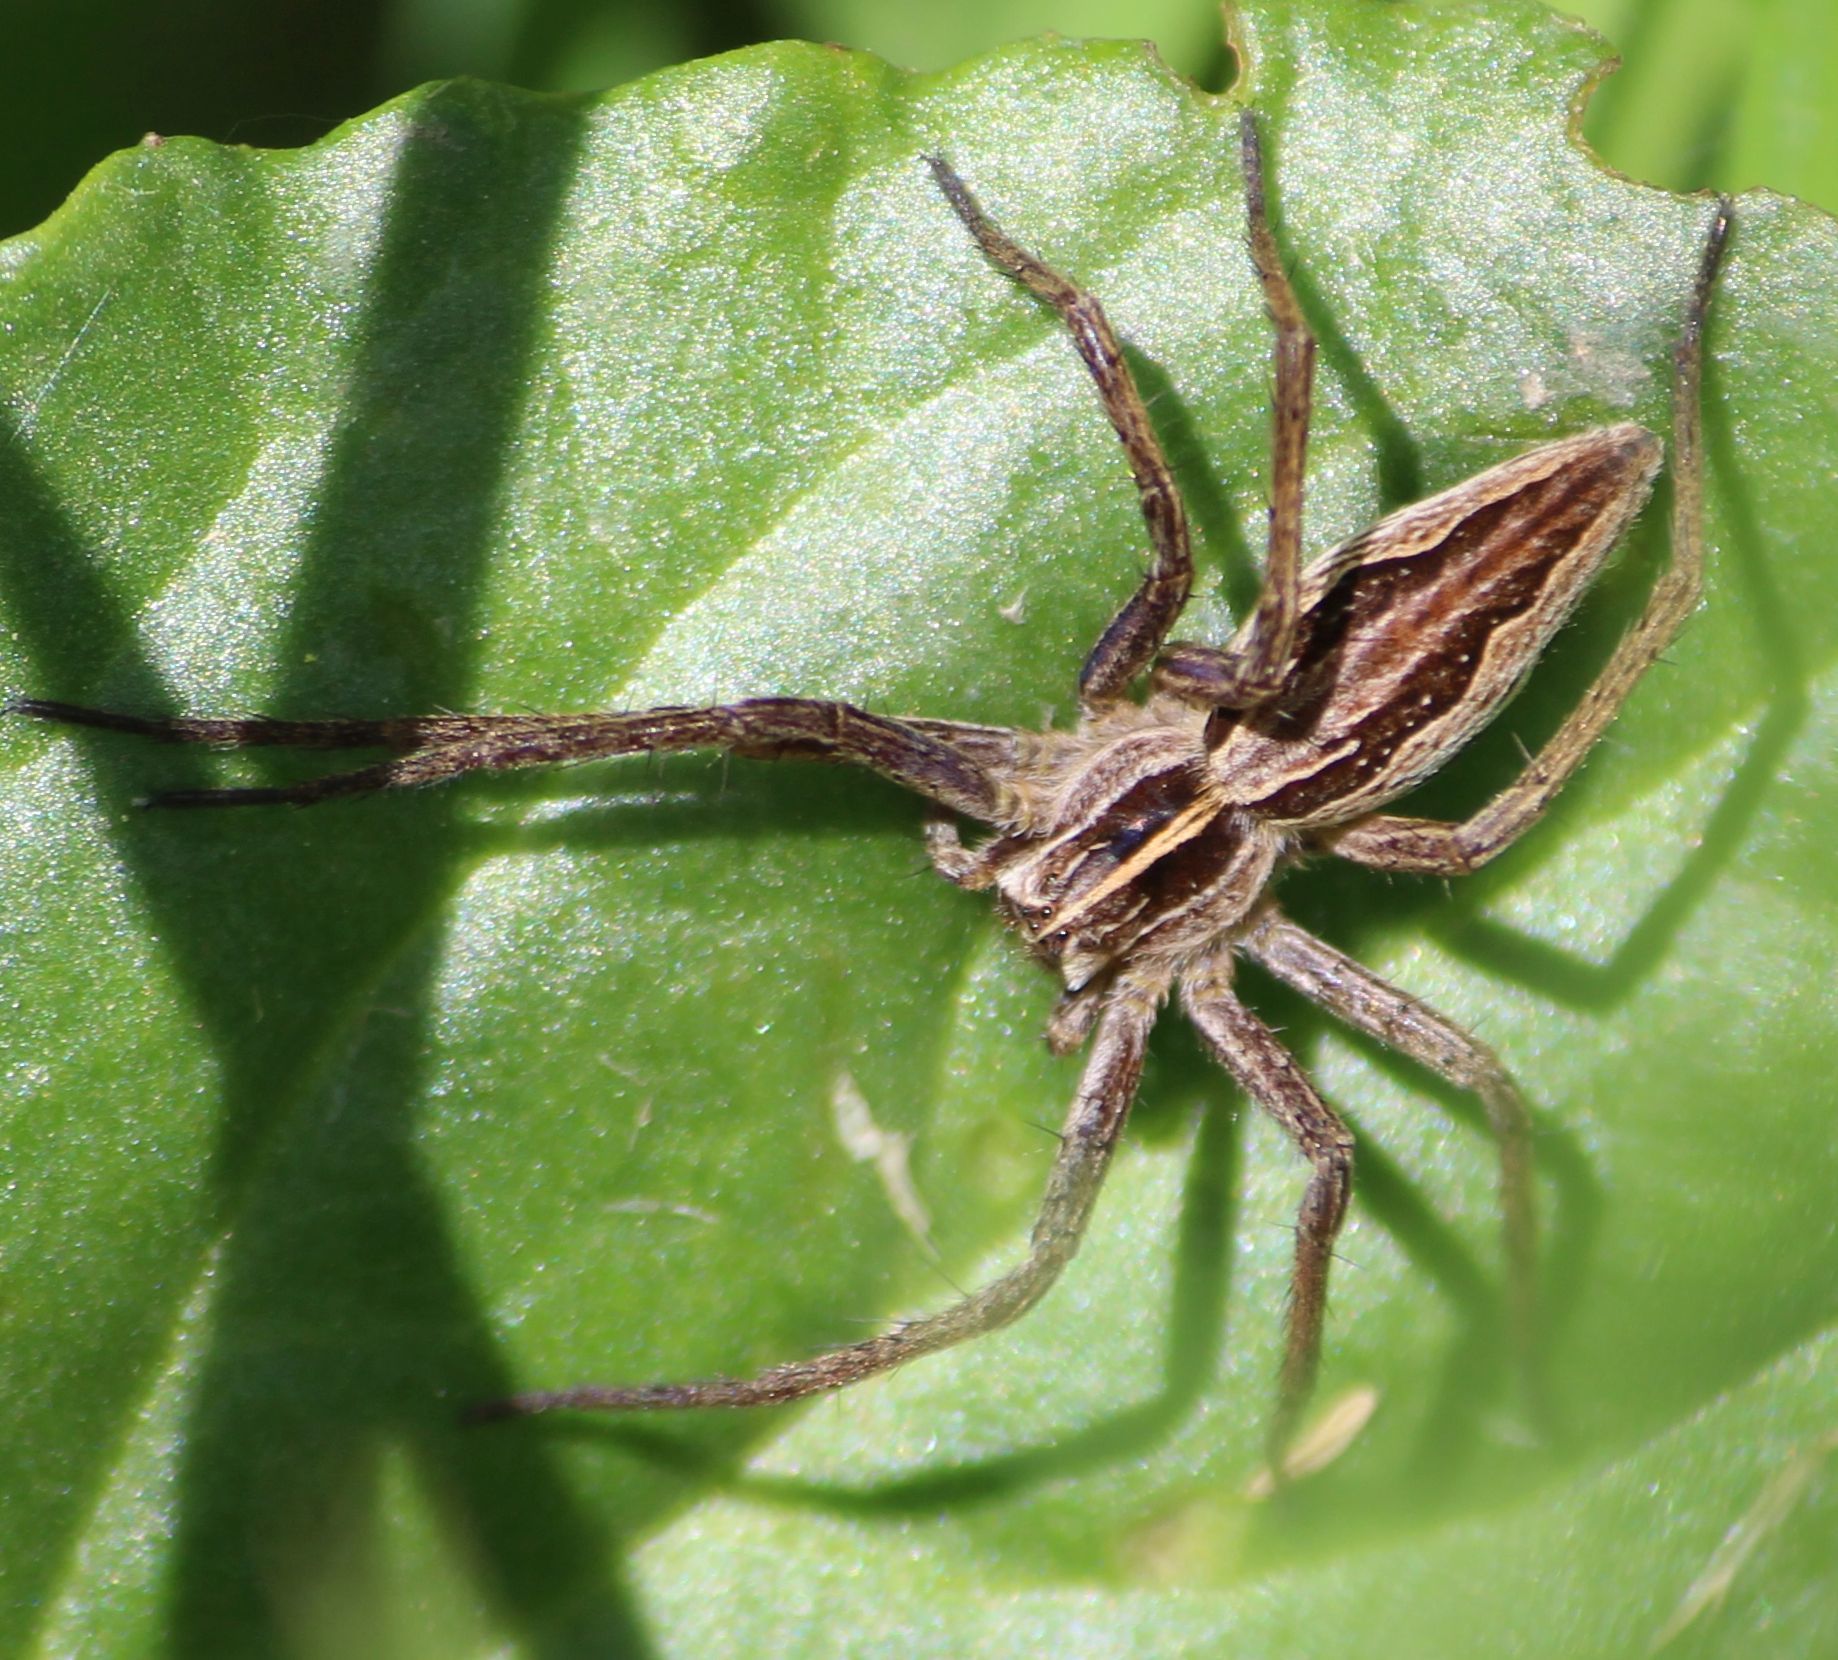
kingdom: Animalia
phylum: Arthropoda
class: Arachnida
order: Araneae
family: Pisauridae
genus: Pisaura
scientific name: Pisaura mirabilis
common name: Tent spider
